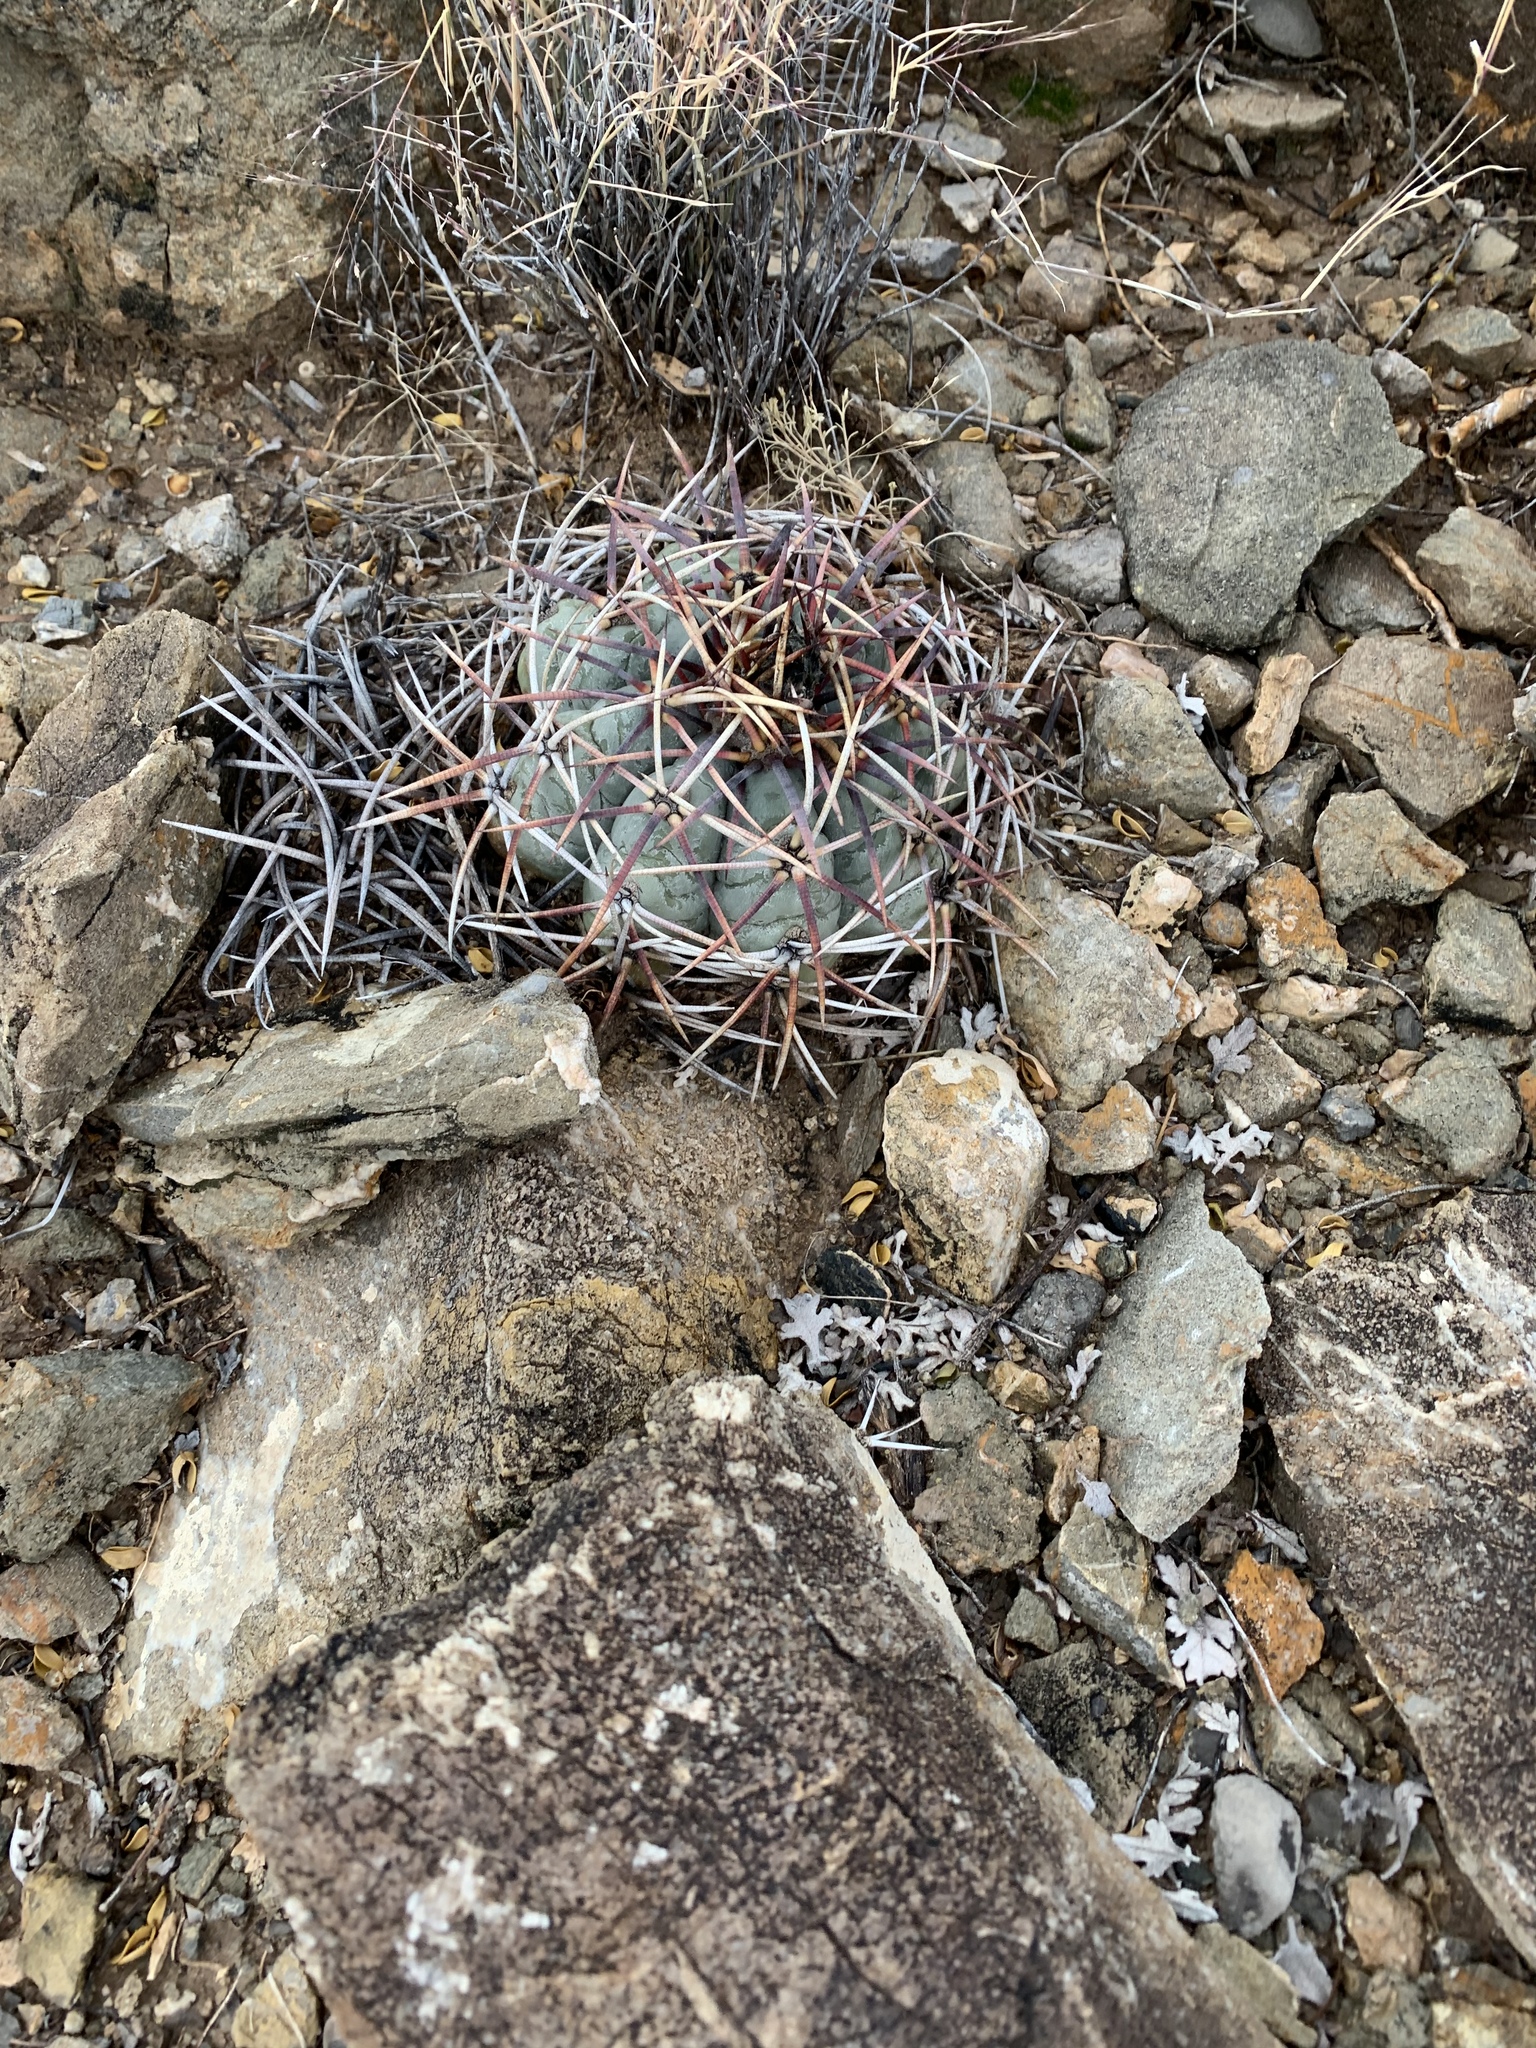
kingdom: Plantae
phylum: Tracheophyta
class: Magnoliopsida
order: Caryophyllales
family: Cactaceae
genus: Echinocactus
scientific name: Echinocactus horizonthalonius
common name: Devilshead
